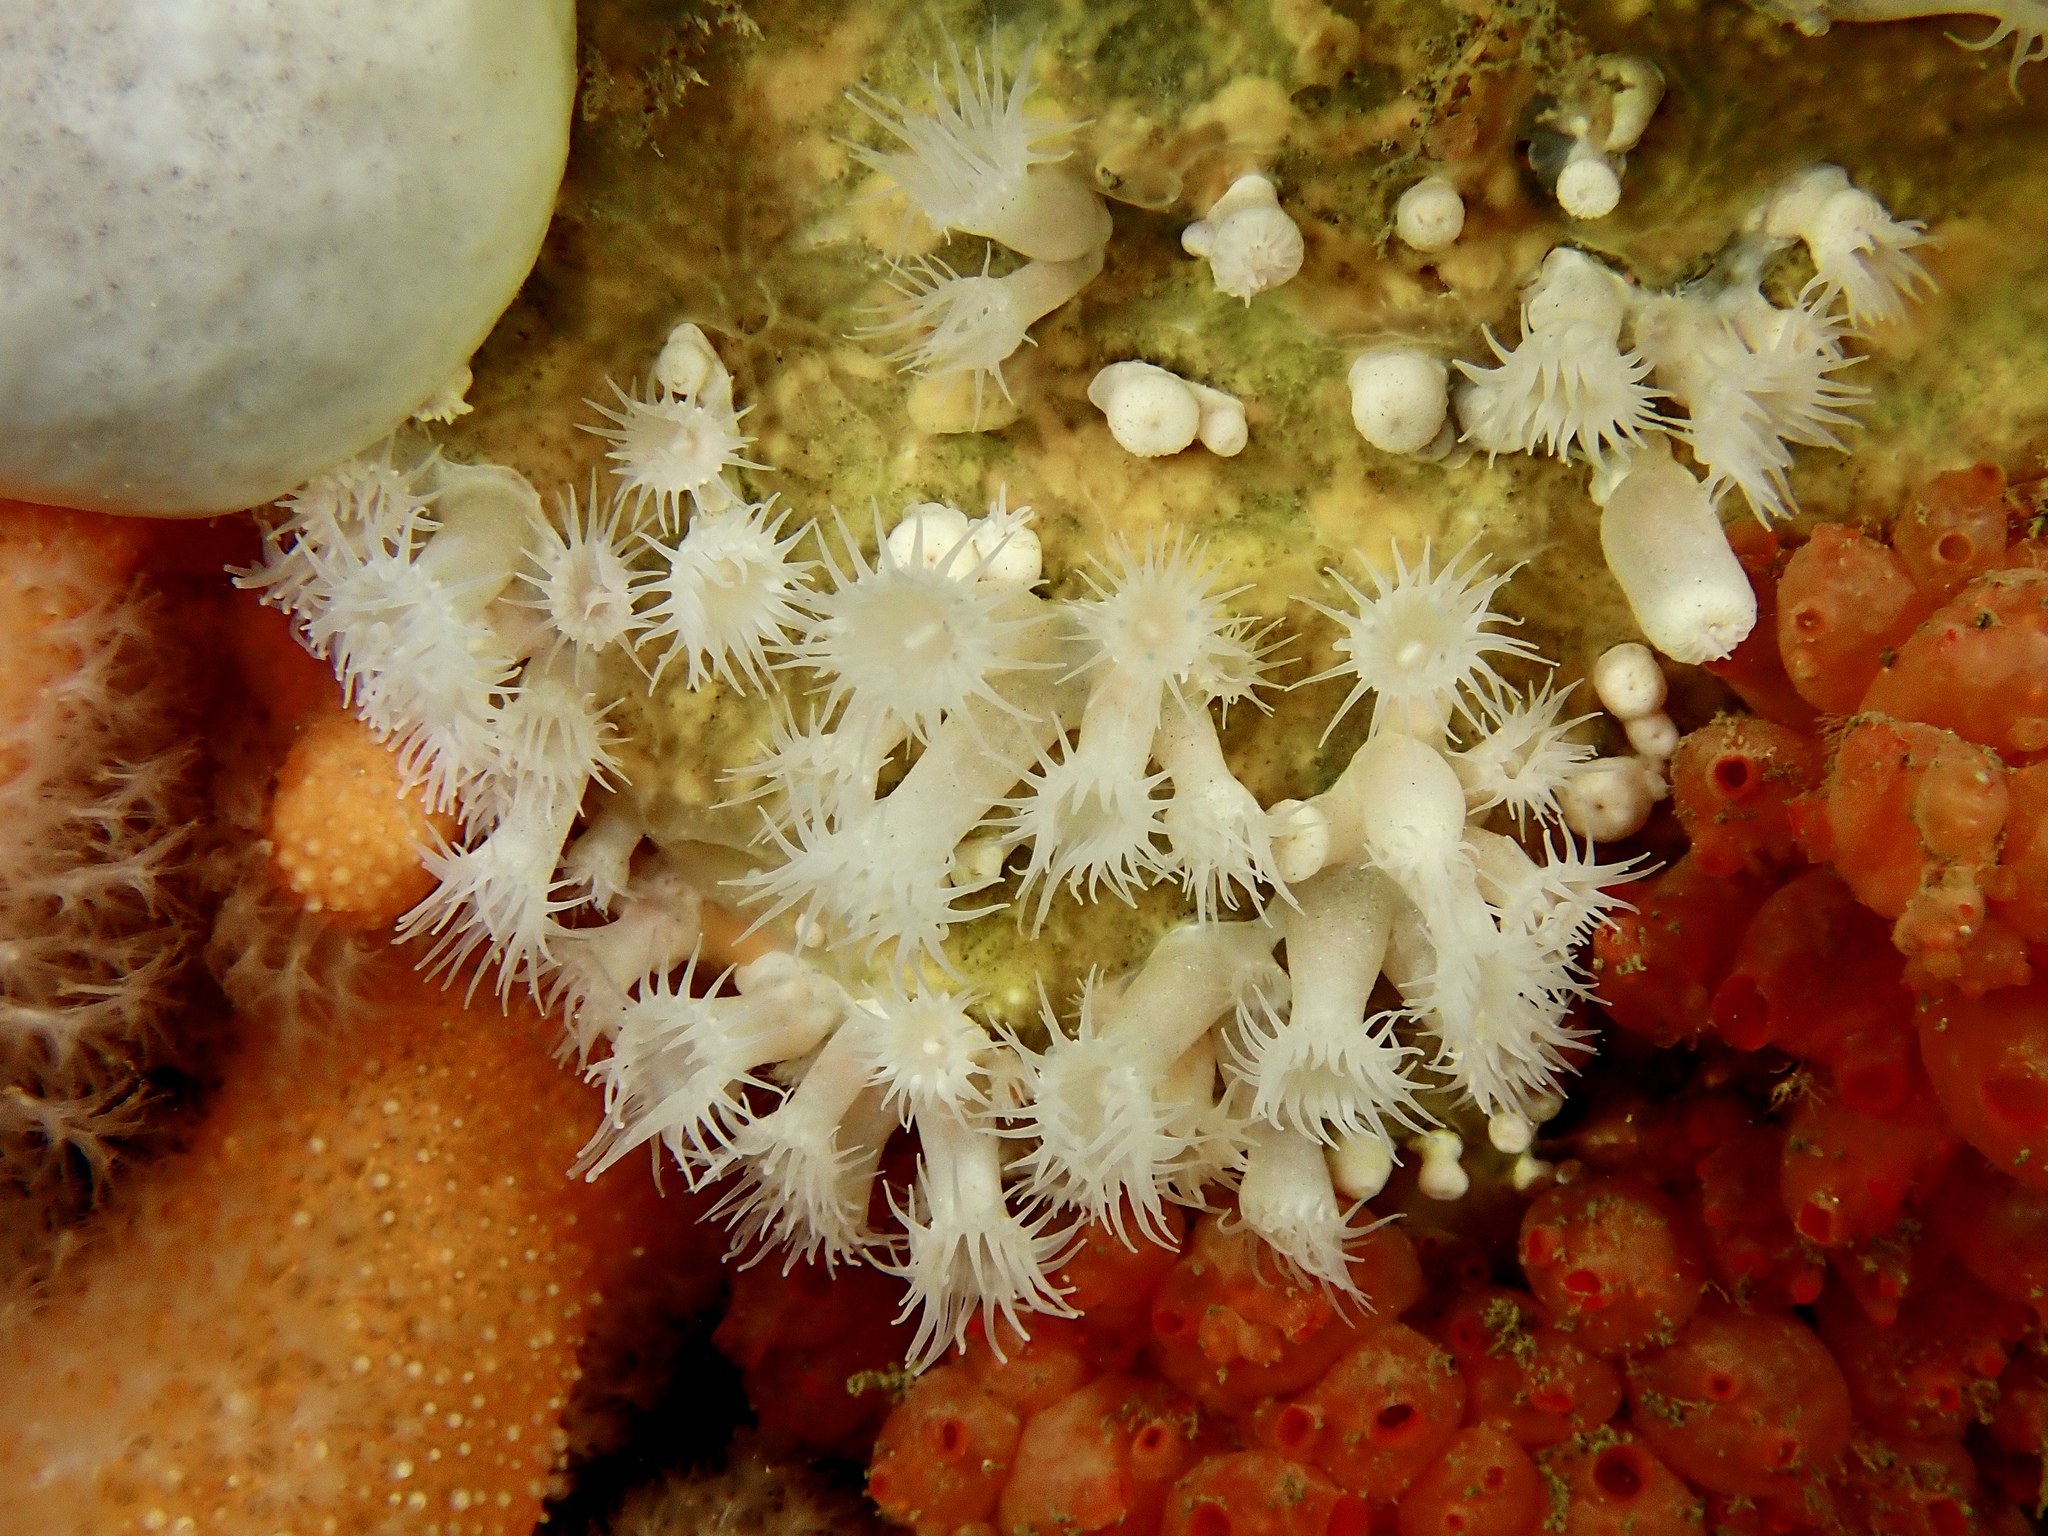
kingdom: Animalia
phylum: Cnidaria
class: Anthozoa
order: Zoantharia
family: Parazoanthidae
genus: Parazoanthus
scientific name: Parazoanthus anguicomus
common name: White cluster anemone
